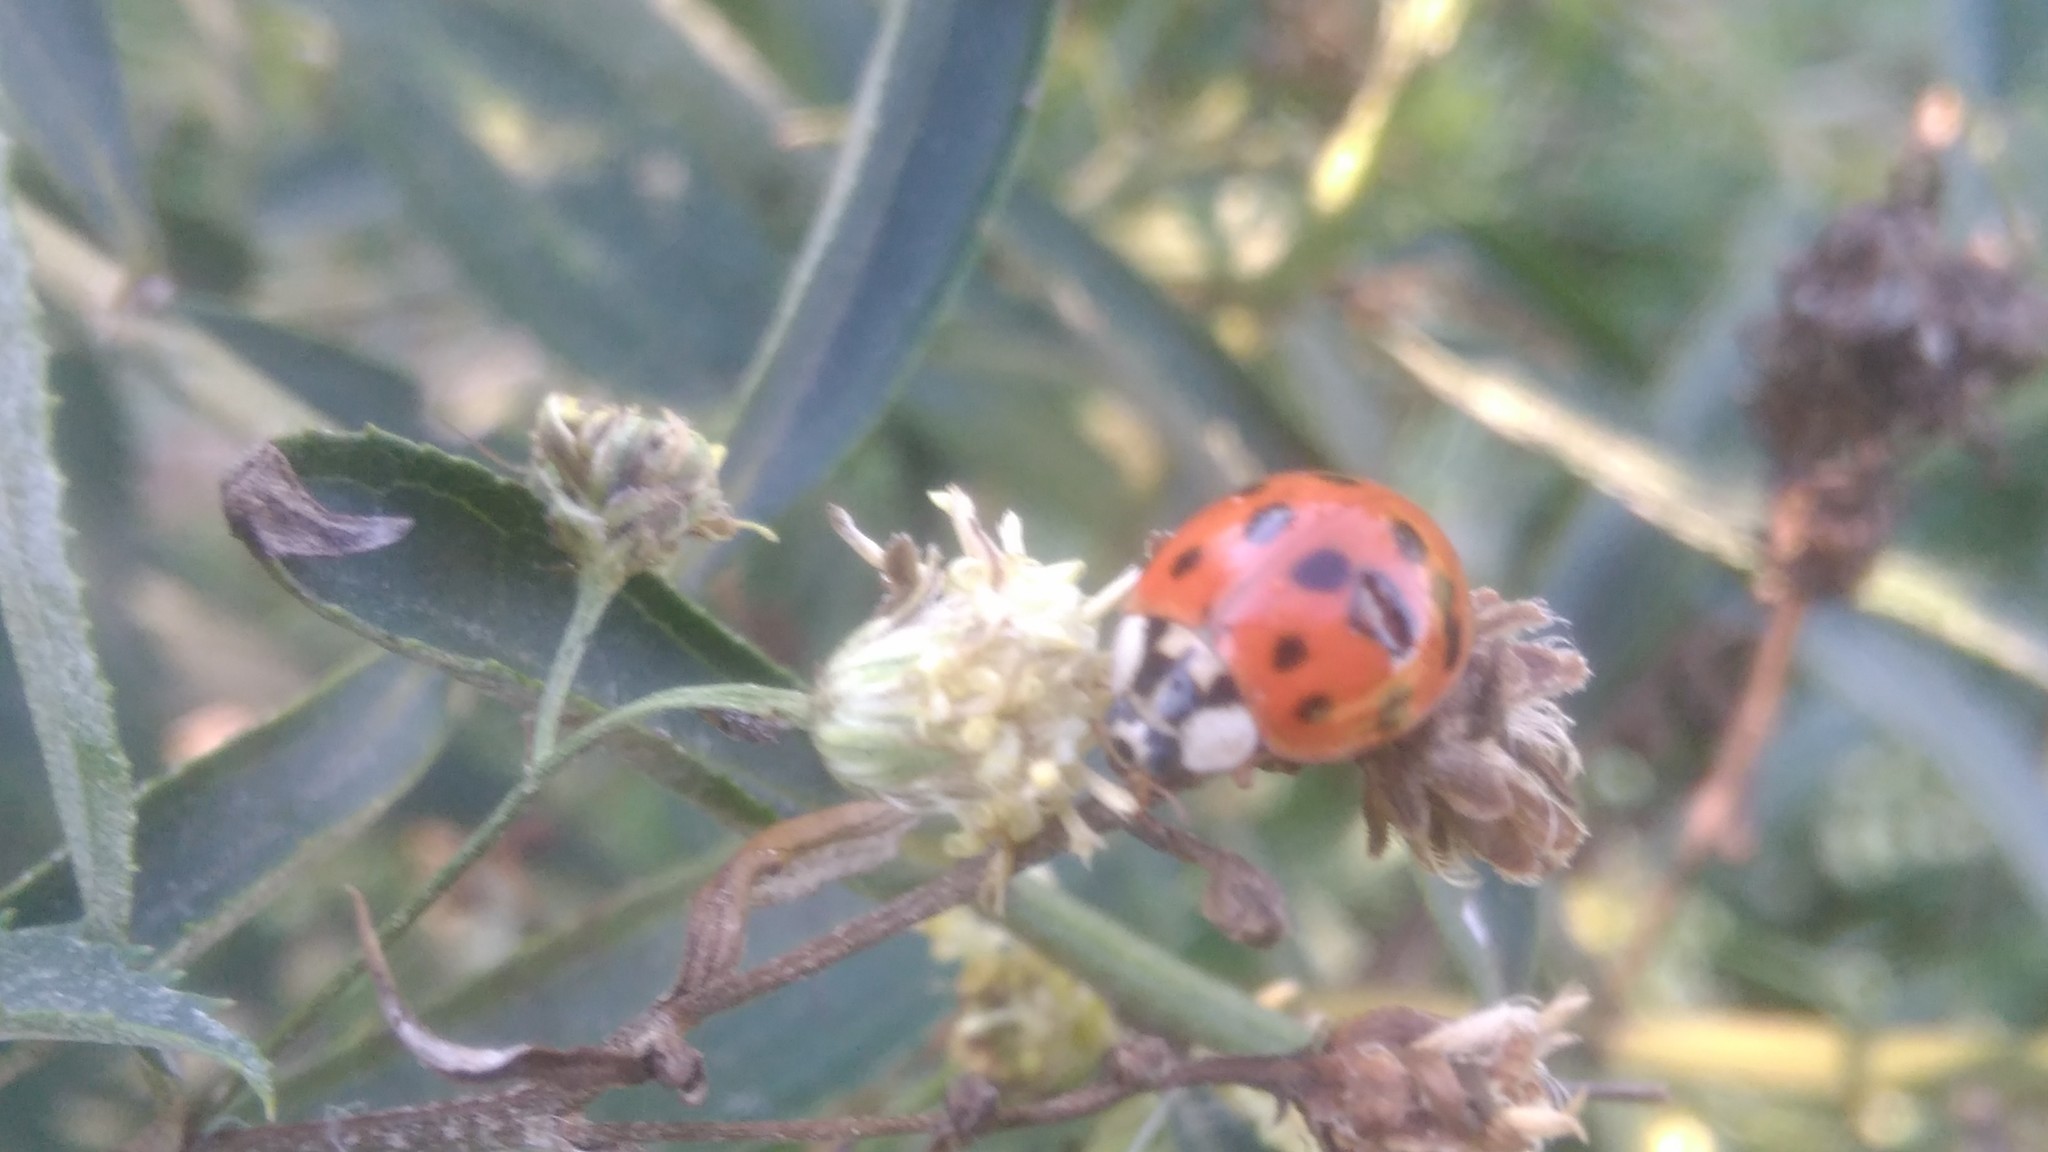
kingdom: Animalia
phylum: Arthropoda
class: Insecta
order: Coleoptera
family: Coccinellidae
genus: Harmonia
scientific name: Harmonia axyridis
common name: Harlequin ladybird
